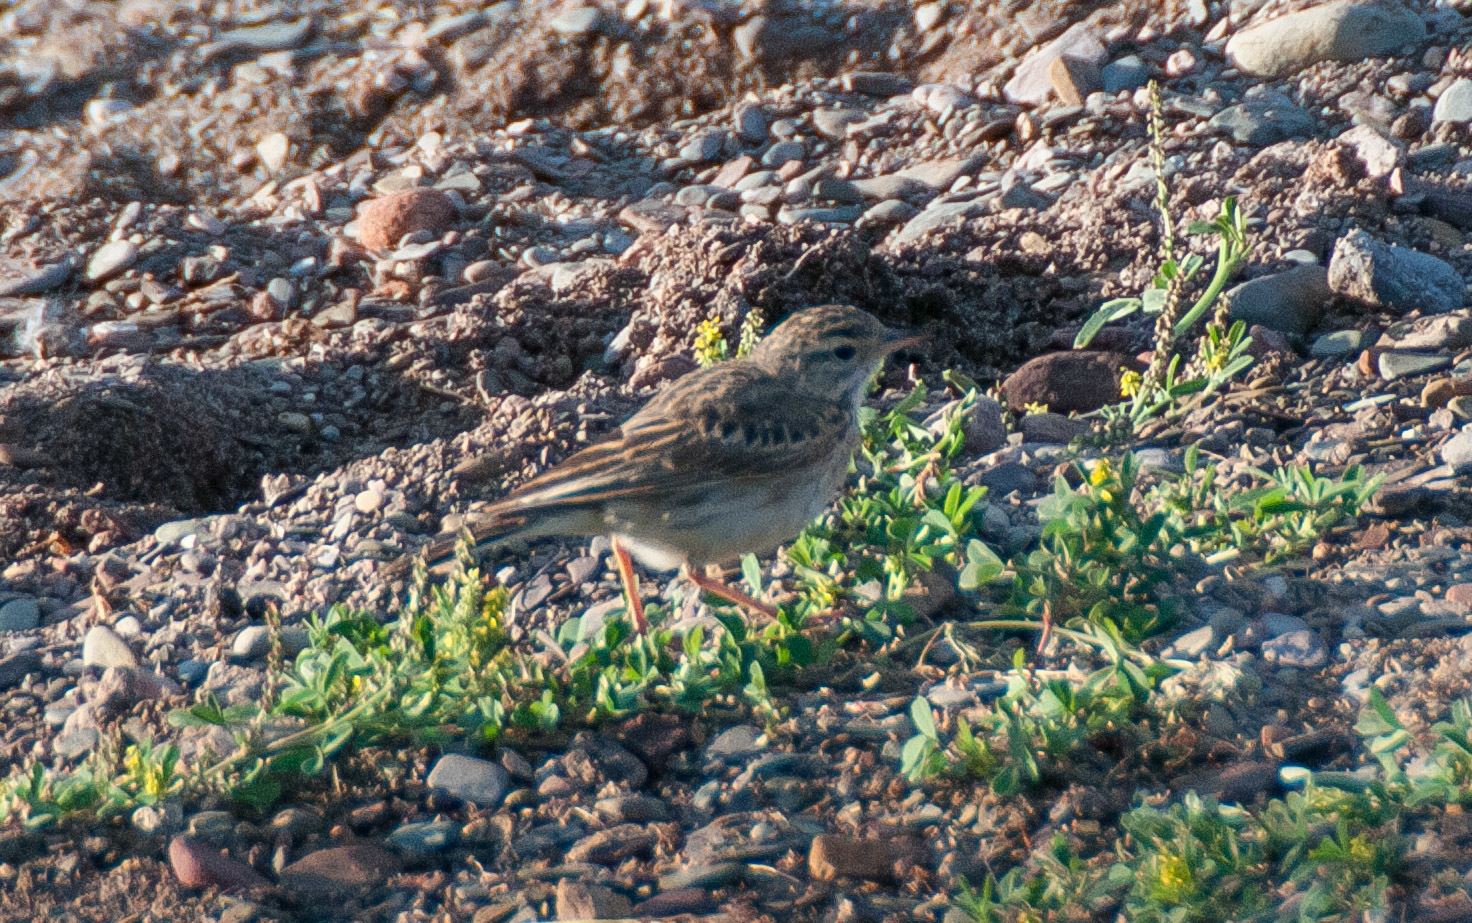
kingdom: Animalia
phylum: Chordata
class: Aves
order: Passeriformes
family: Motacillidae
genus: Anthus
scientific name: Anthus australis
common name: Australian pipit
